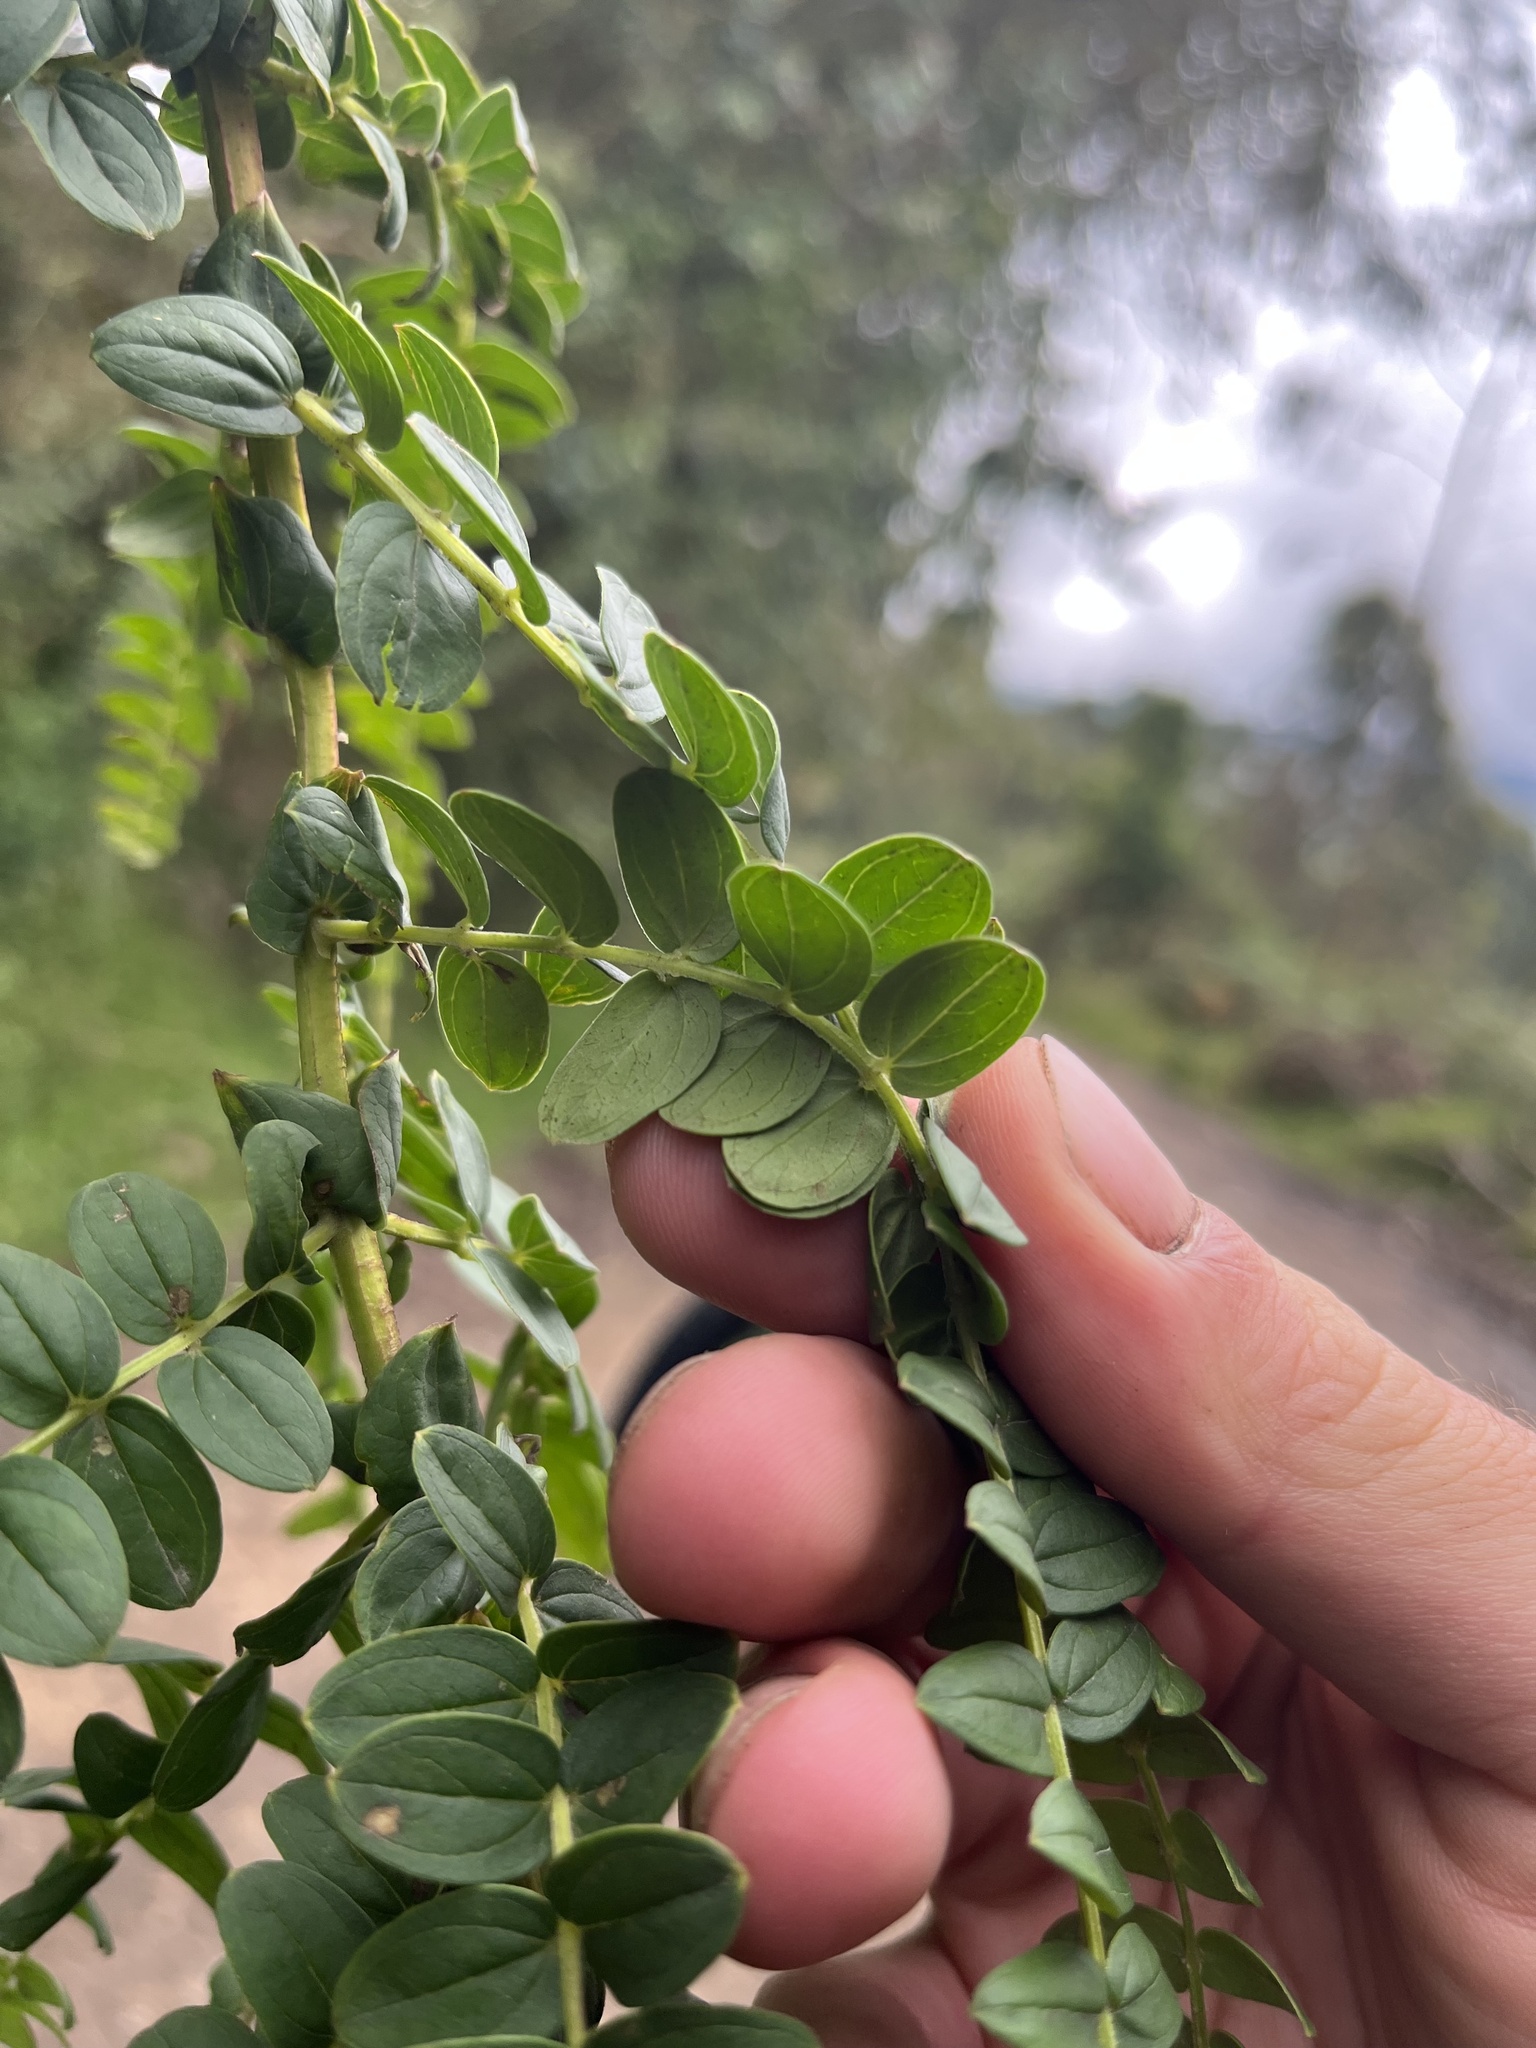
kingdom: Plantae
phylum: Tracheophyta
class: Magnoliopsida
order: Cucurbitales
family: Coriariaceae
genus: Coriaria
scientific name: Coriaria ruscifolia
